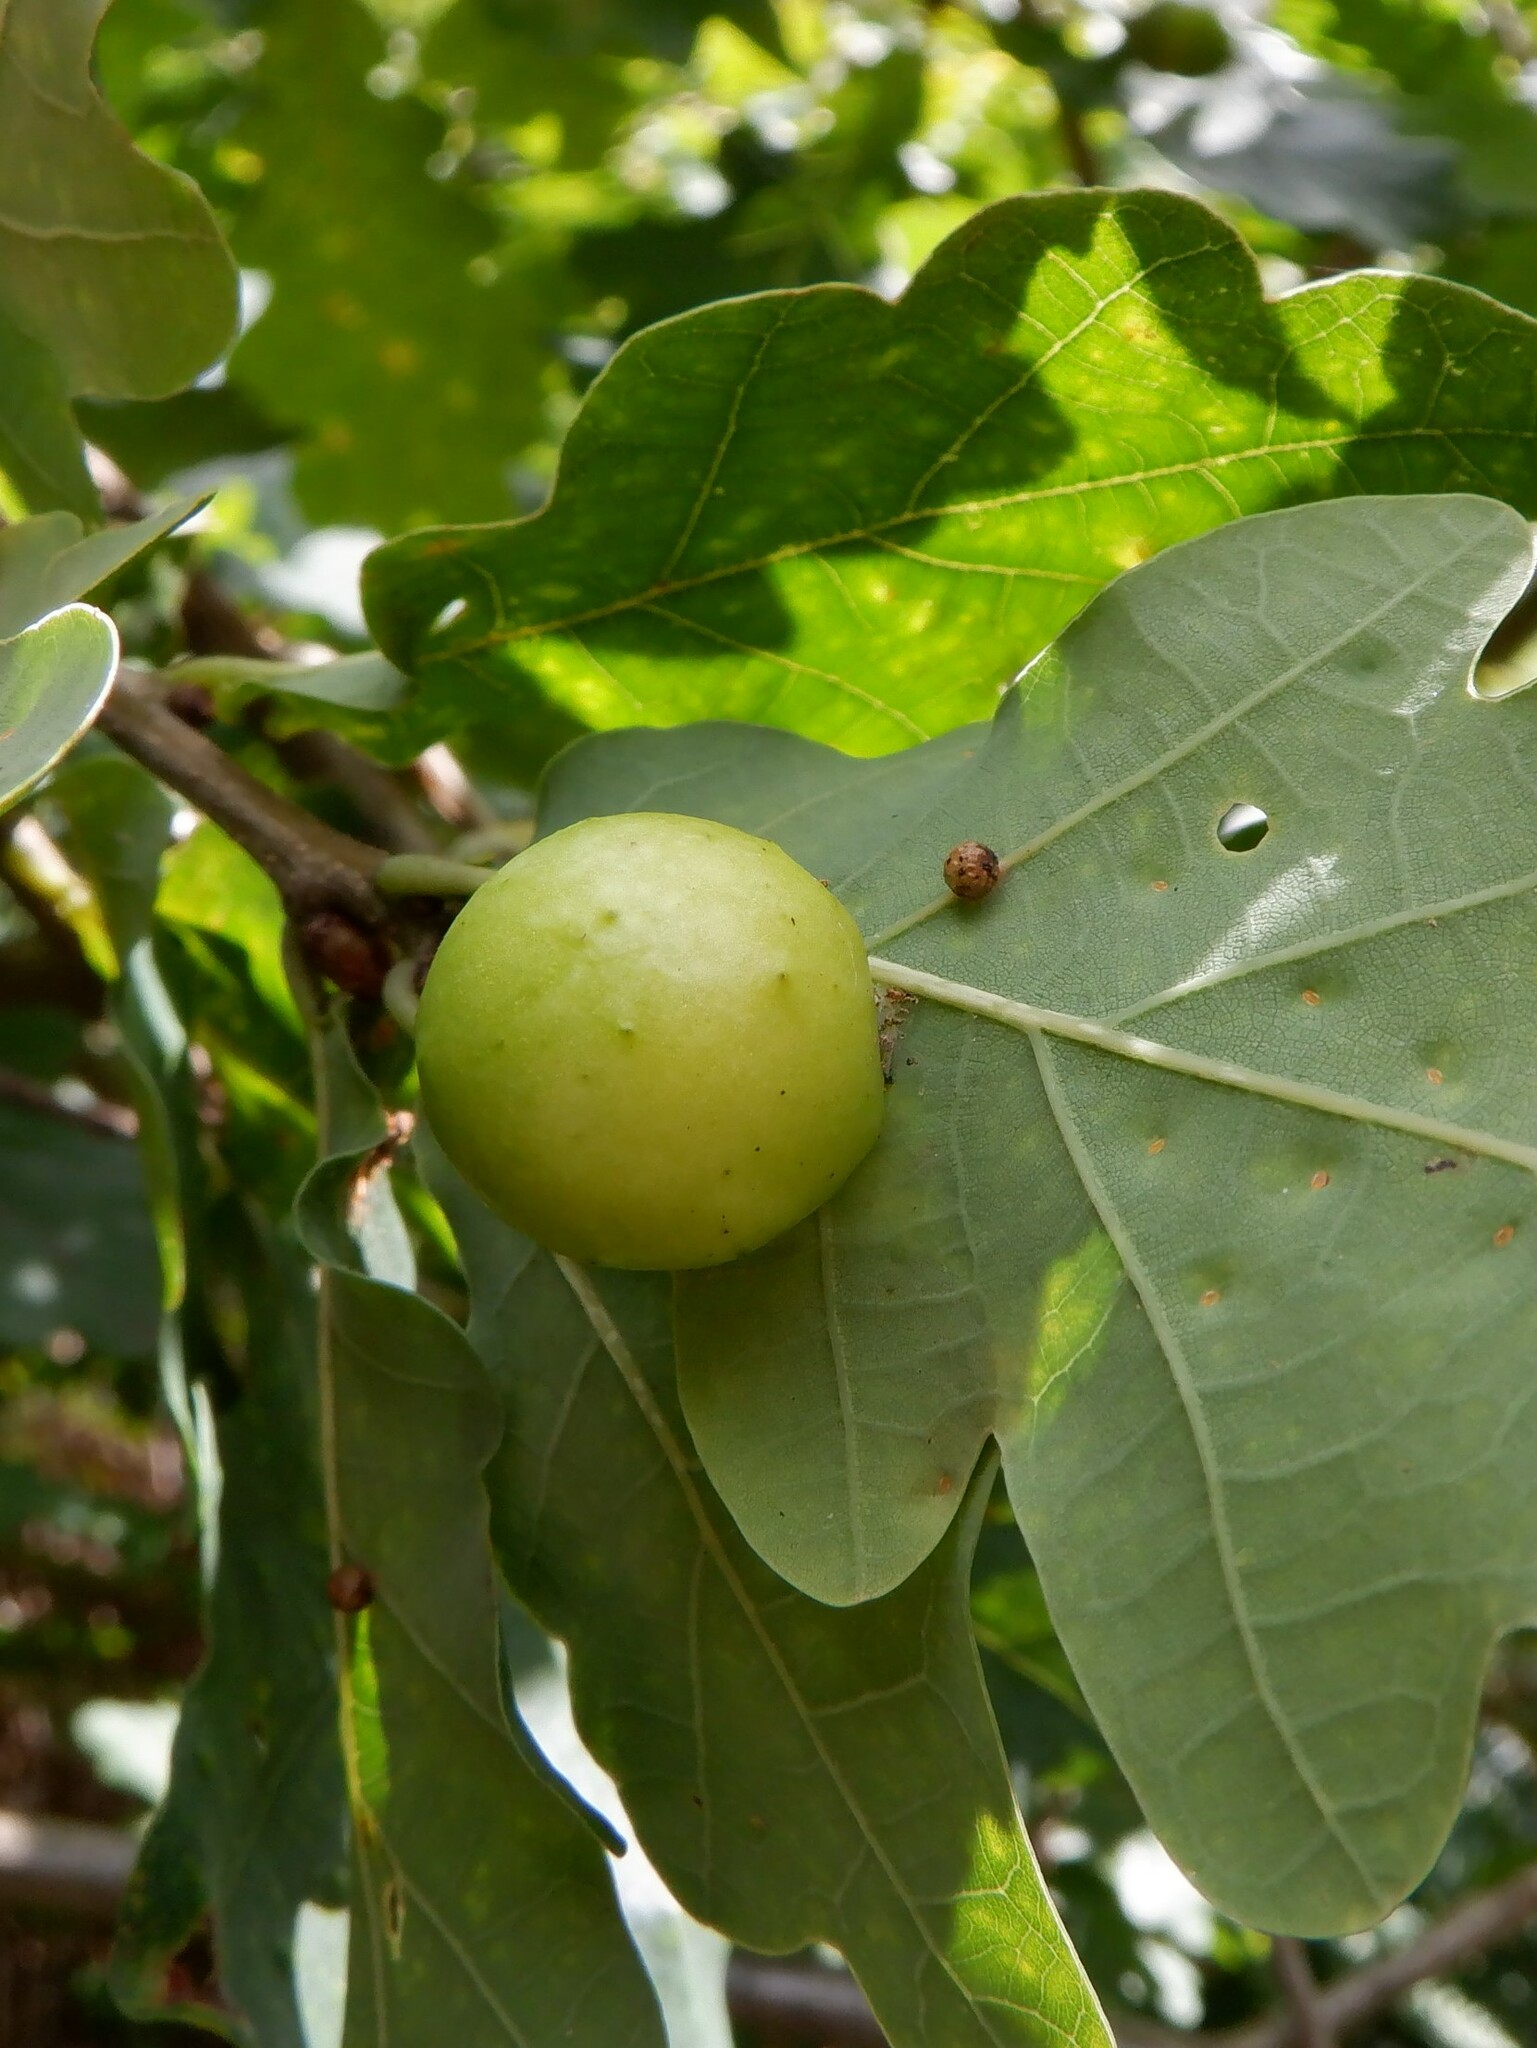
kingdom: Animalia
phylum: Arthropoda
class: Insecta
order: Hymenoptera
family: Cynipidae
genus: Cynips
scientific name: Cynips quercusfolii
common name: Cherry gall
